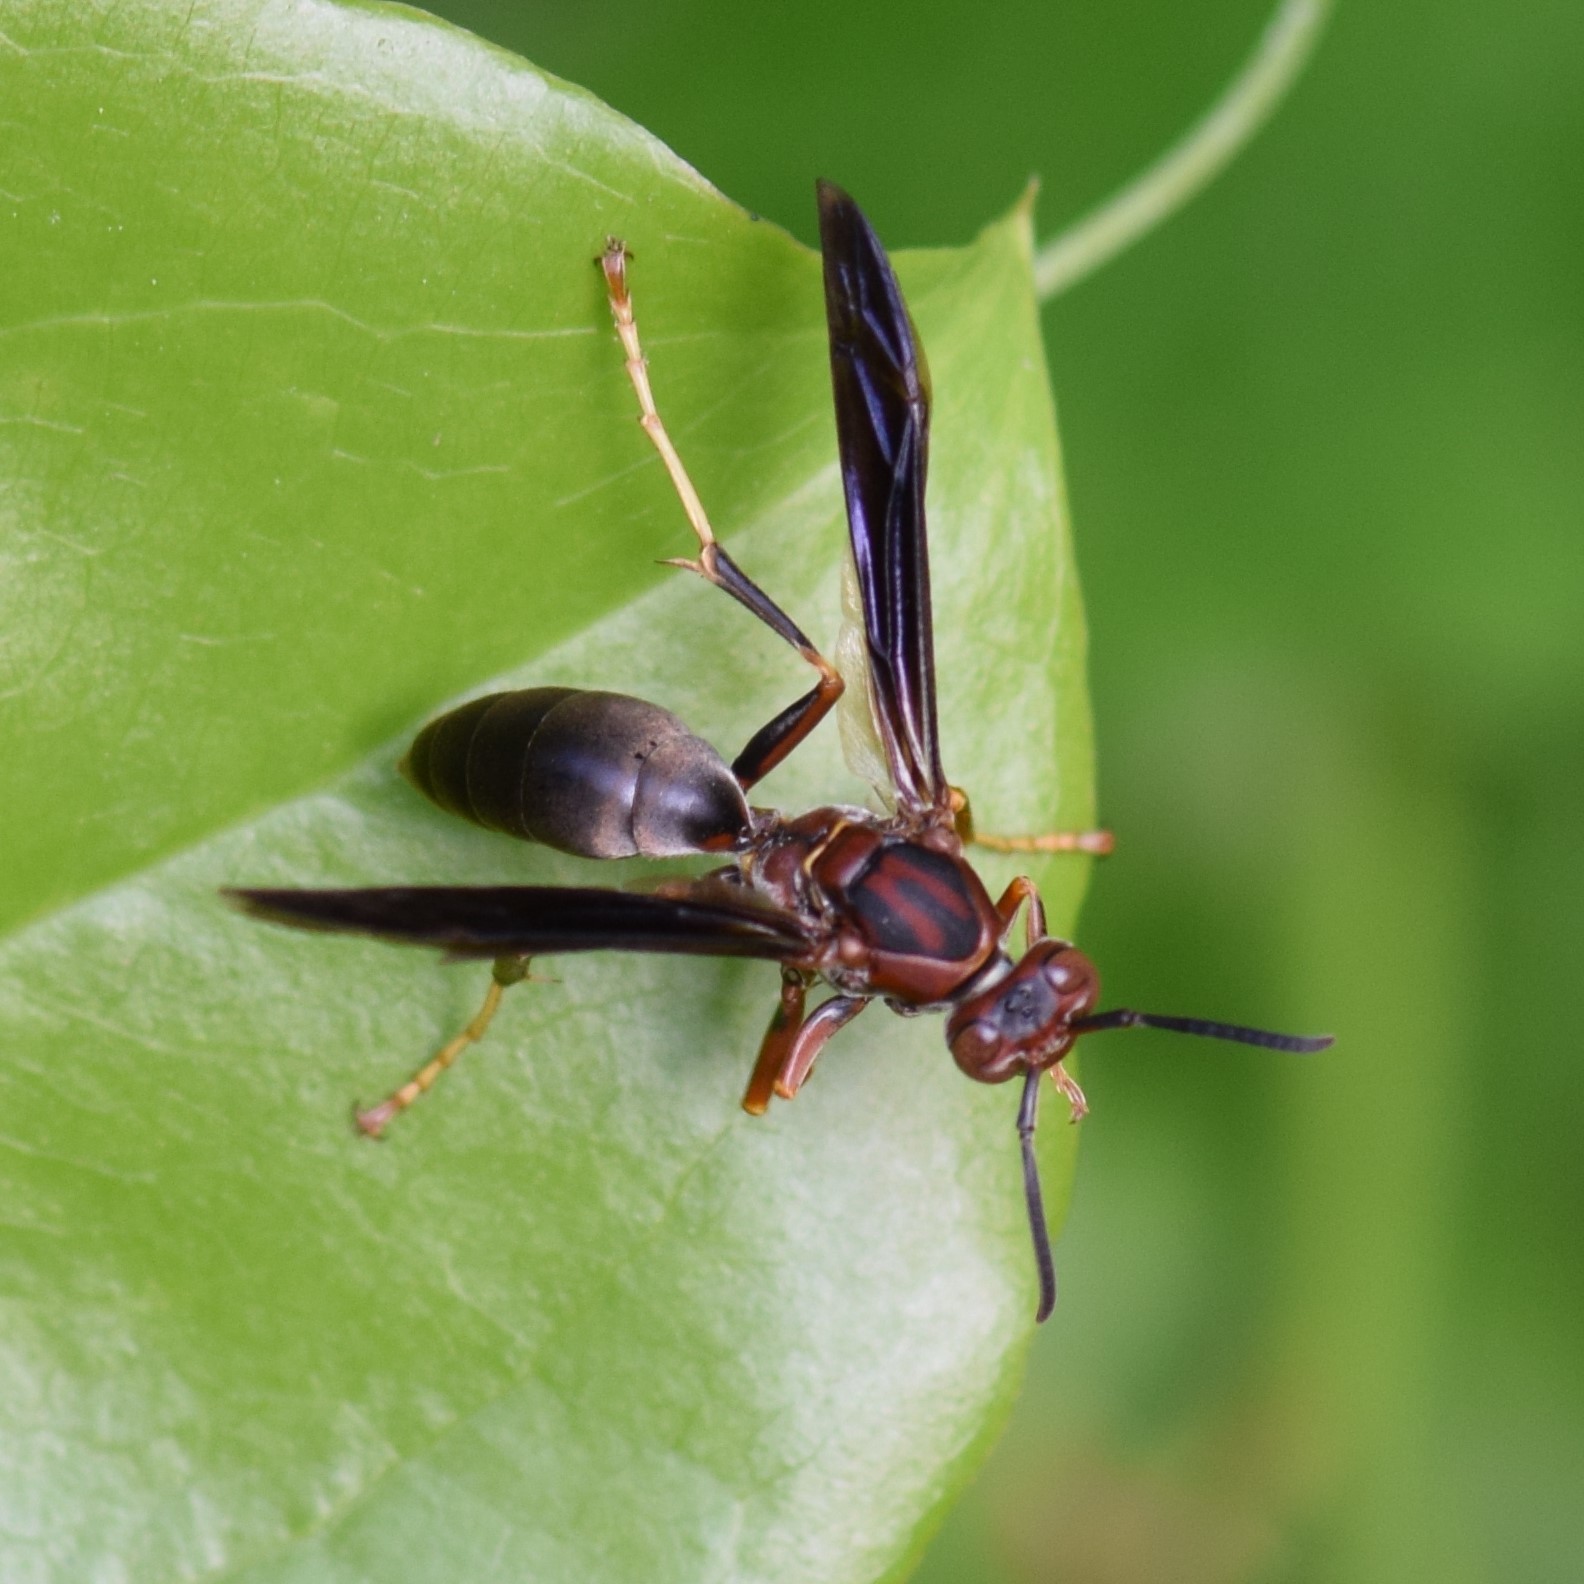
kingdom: Animalia
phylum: Arthropoda
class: Insecta
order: Hymenoptera
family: Eumenidae
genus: Polistes
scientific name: Polistes metricus
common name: Metric paper wasp
